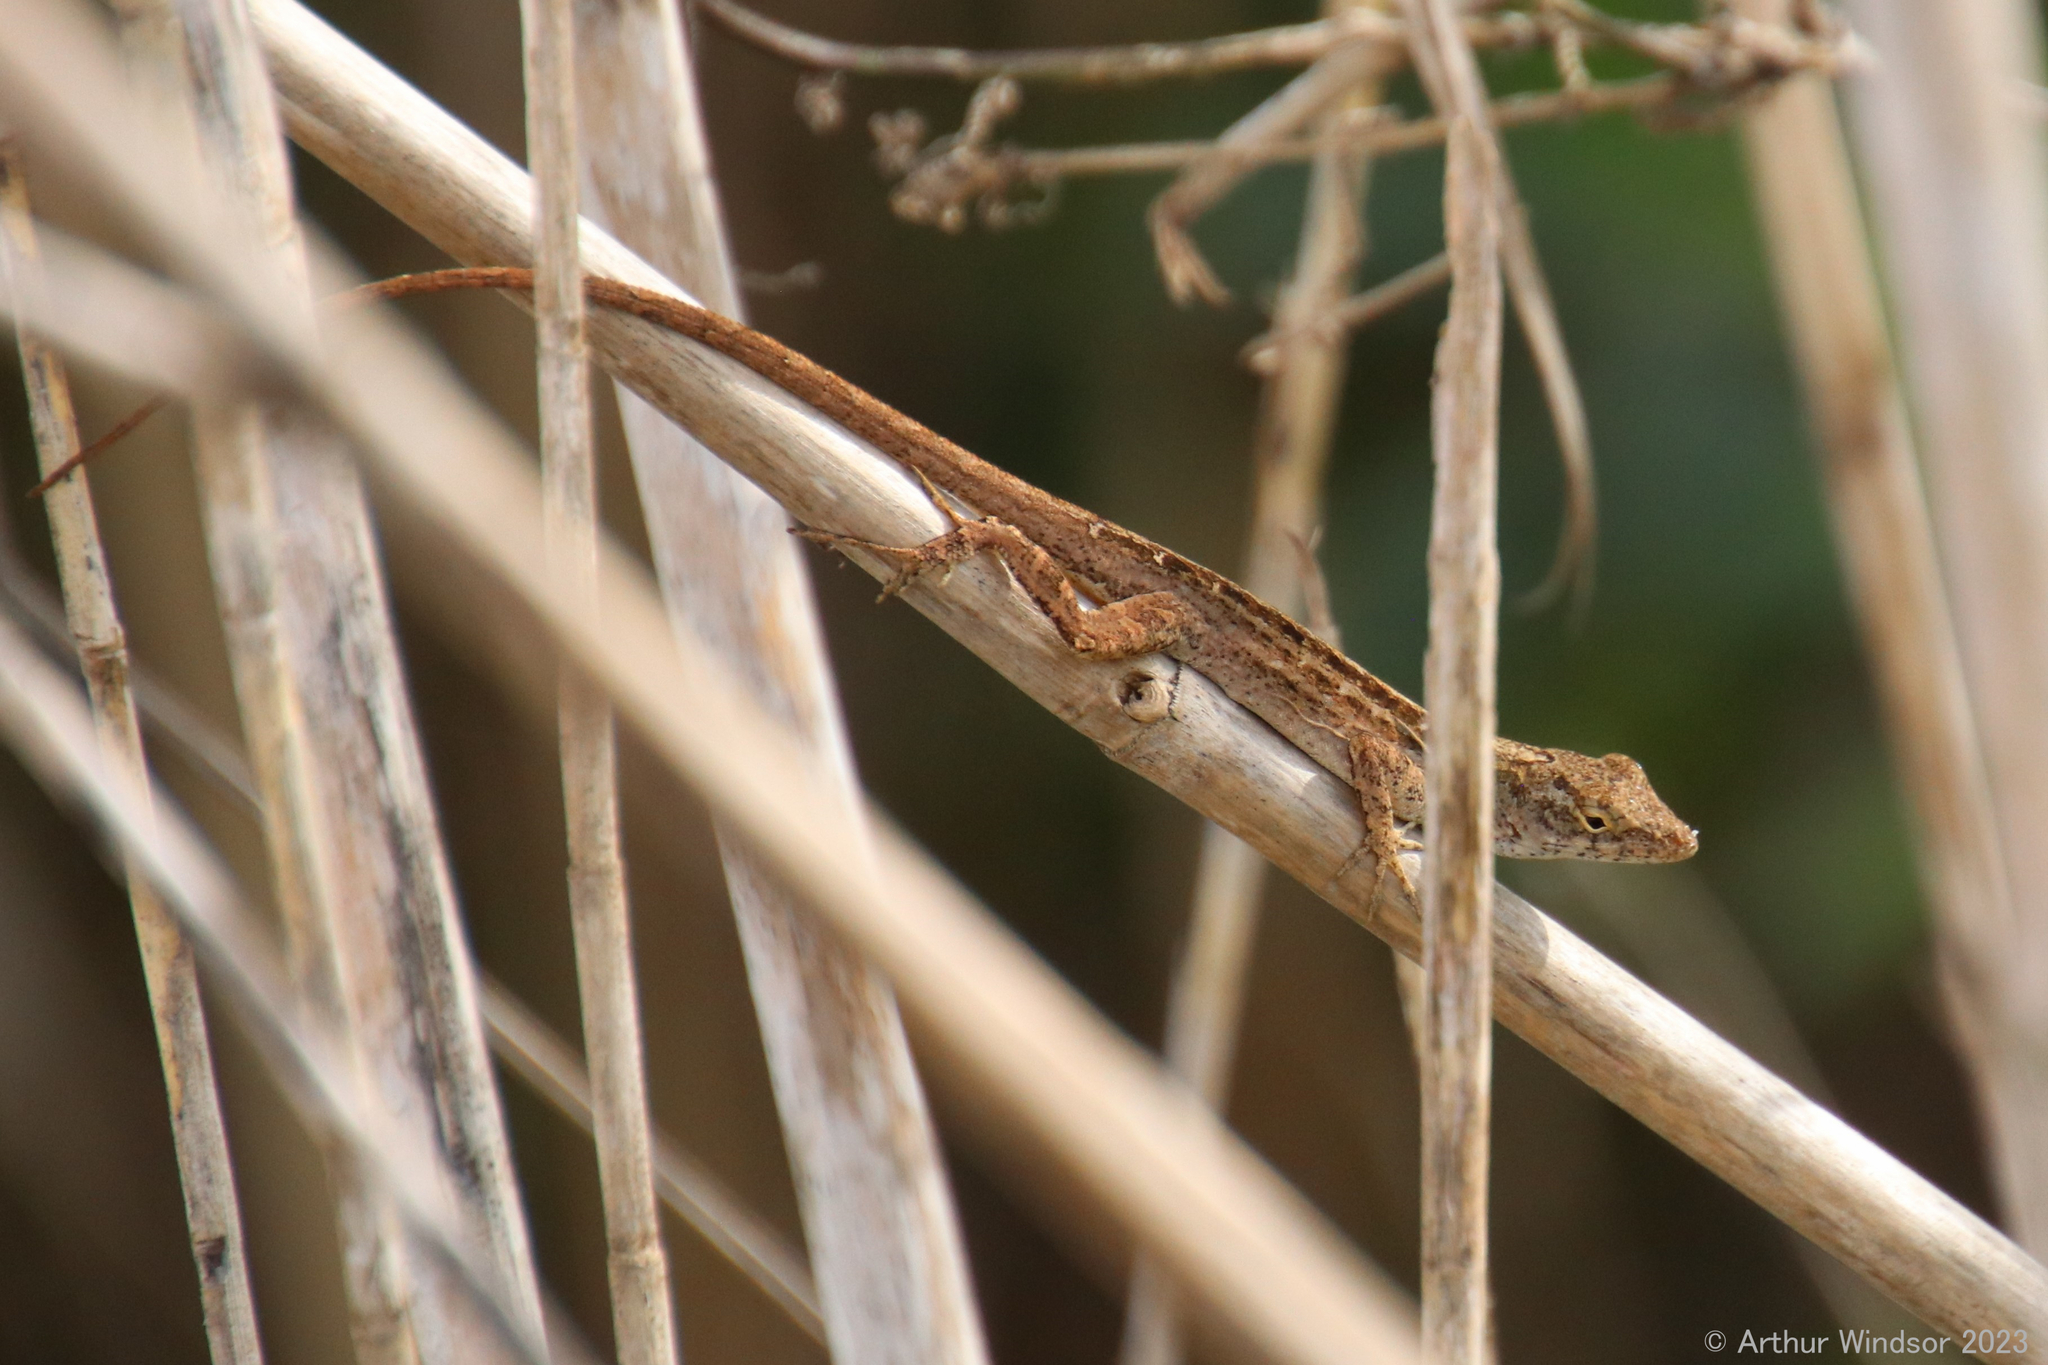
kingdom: Animalia
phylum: Chordata
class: Squamata
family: Dactyloidae
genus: Anolis
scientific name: Anolis sagrei
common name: Brown anole
